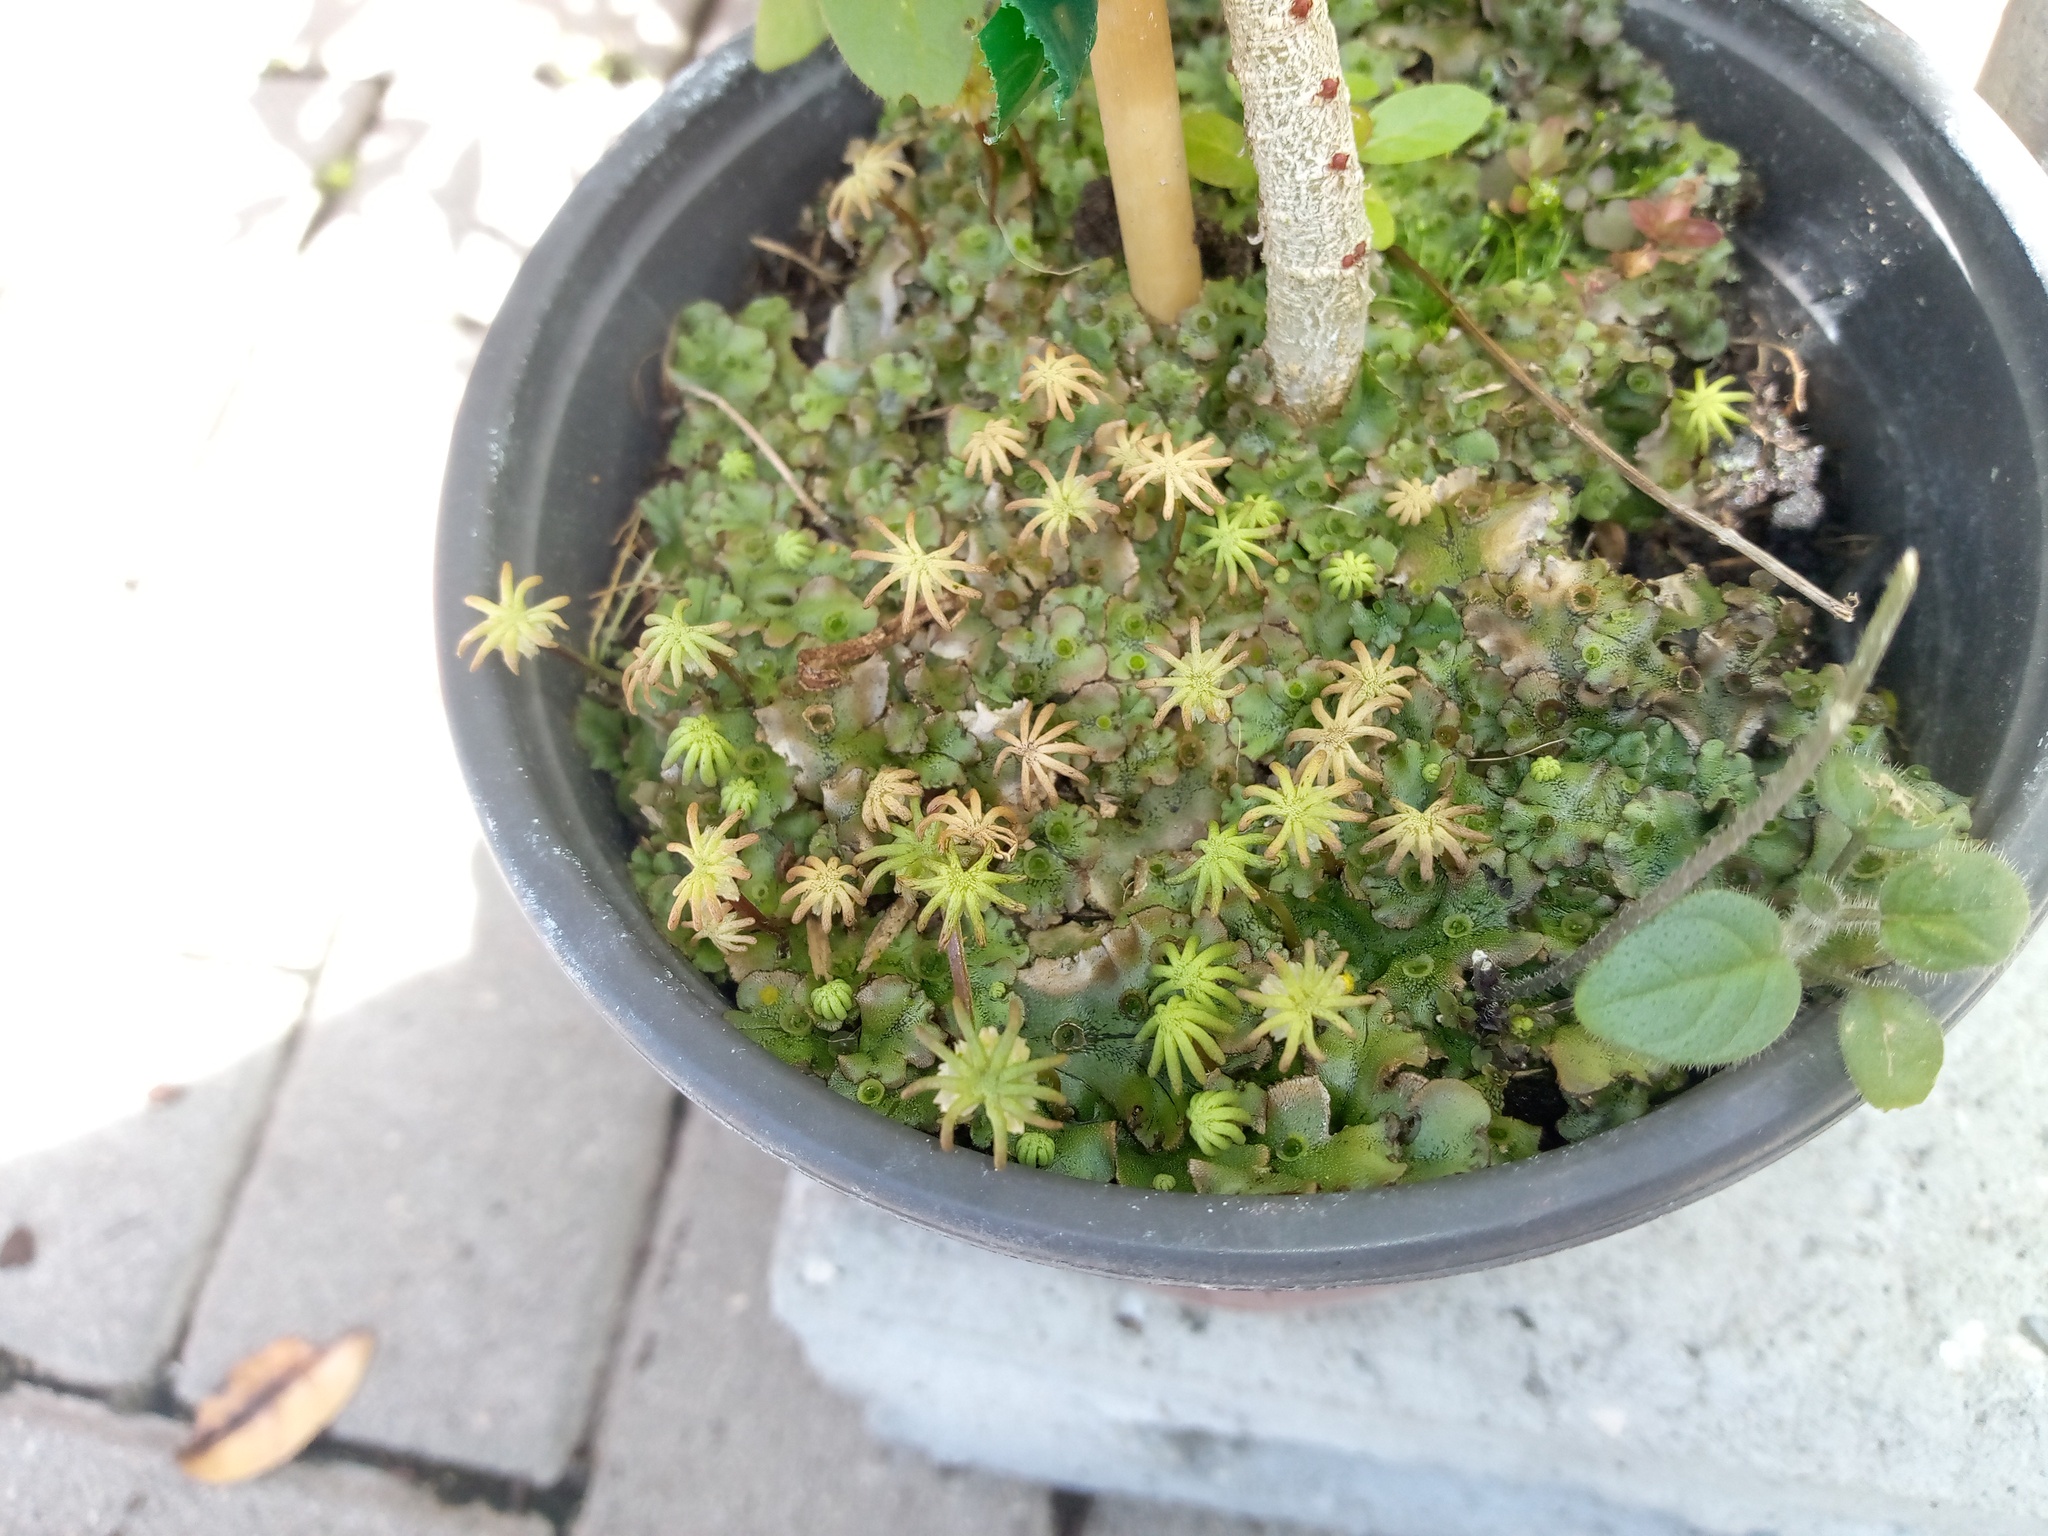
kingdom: Plantae
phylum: Marchantiophyta
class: Marchantiopsida
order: Marchantiales
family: Marchantiaceae
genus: Marchantia
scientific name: Marchantia polymorpha
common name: Common liverwort
